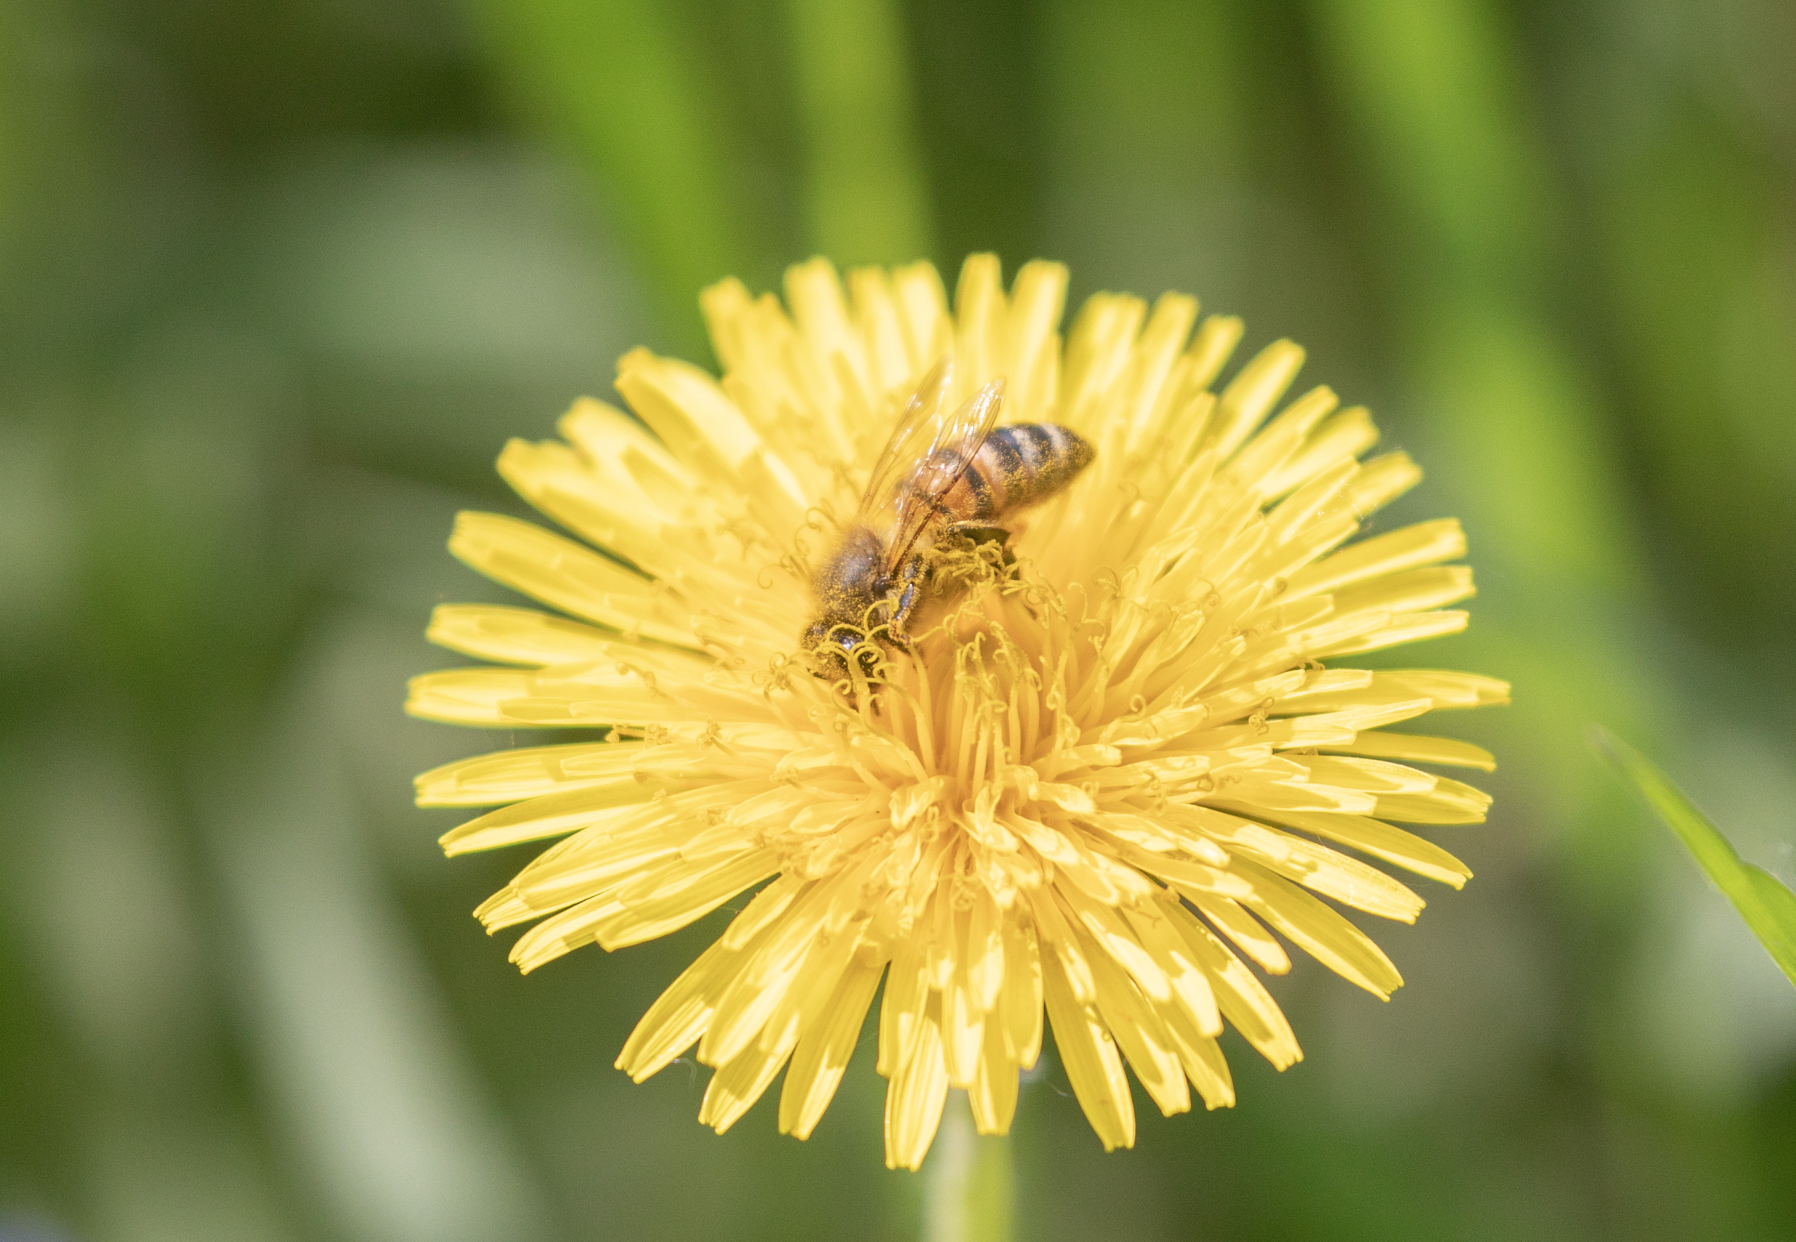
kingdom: Animalia
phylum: Arthropoda
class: Insecta
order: Hymenoptera
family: Apidae
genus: Apis
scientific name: Apis mellifera
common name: Honey bee
